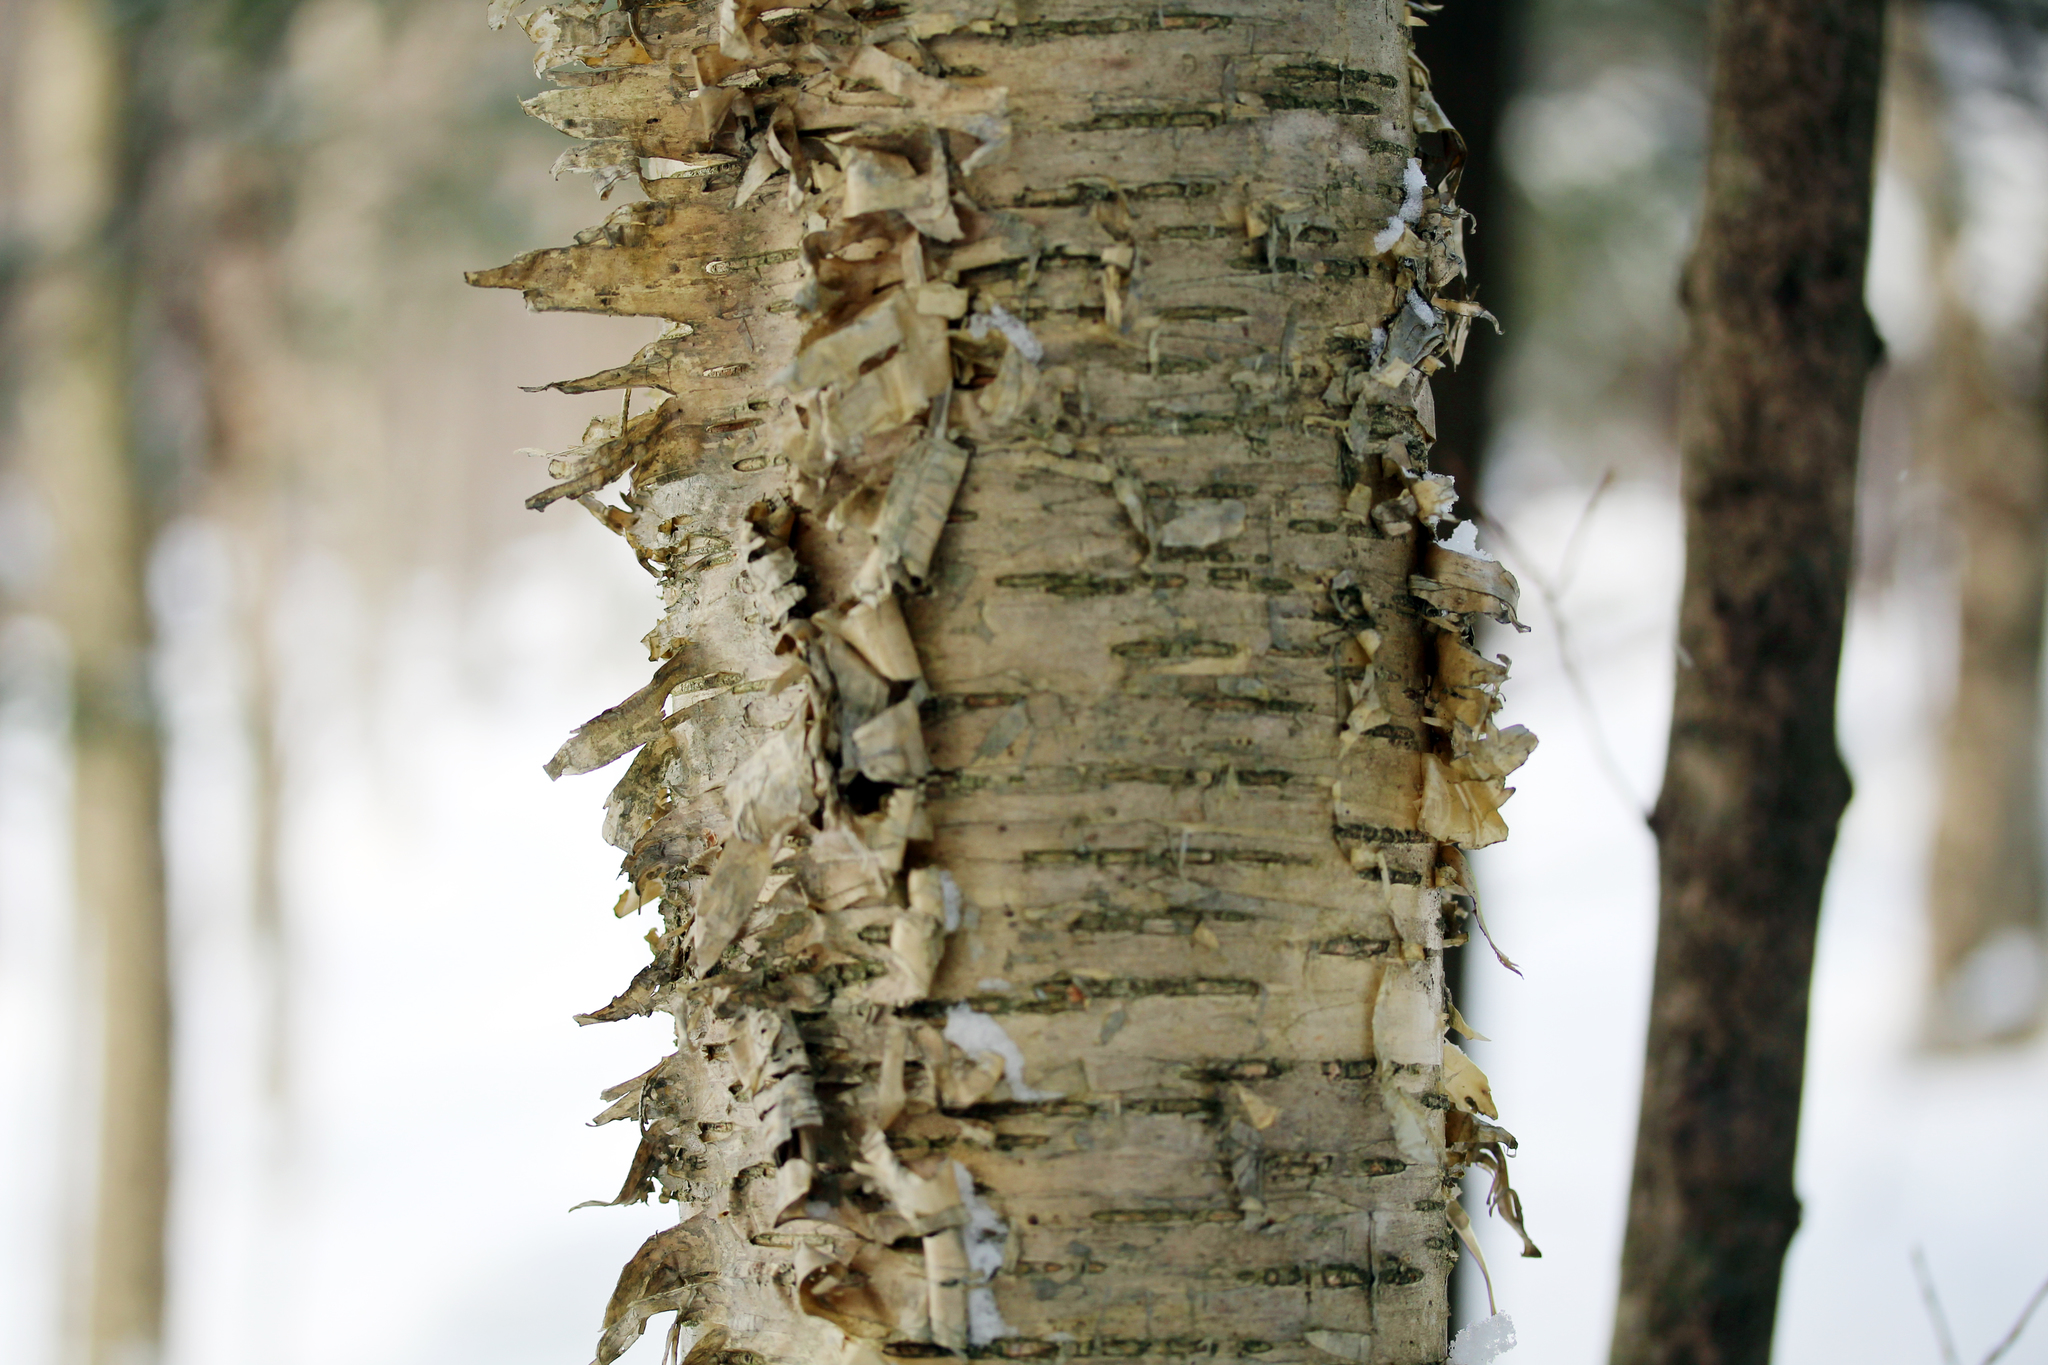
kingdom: Plantae
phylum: Tracheophyta
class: Magnoliopsida
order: Fagales
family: Betulaceae
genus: Betula
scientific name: Betula alleghaniensis
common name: Yellow birch
